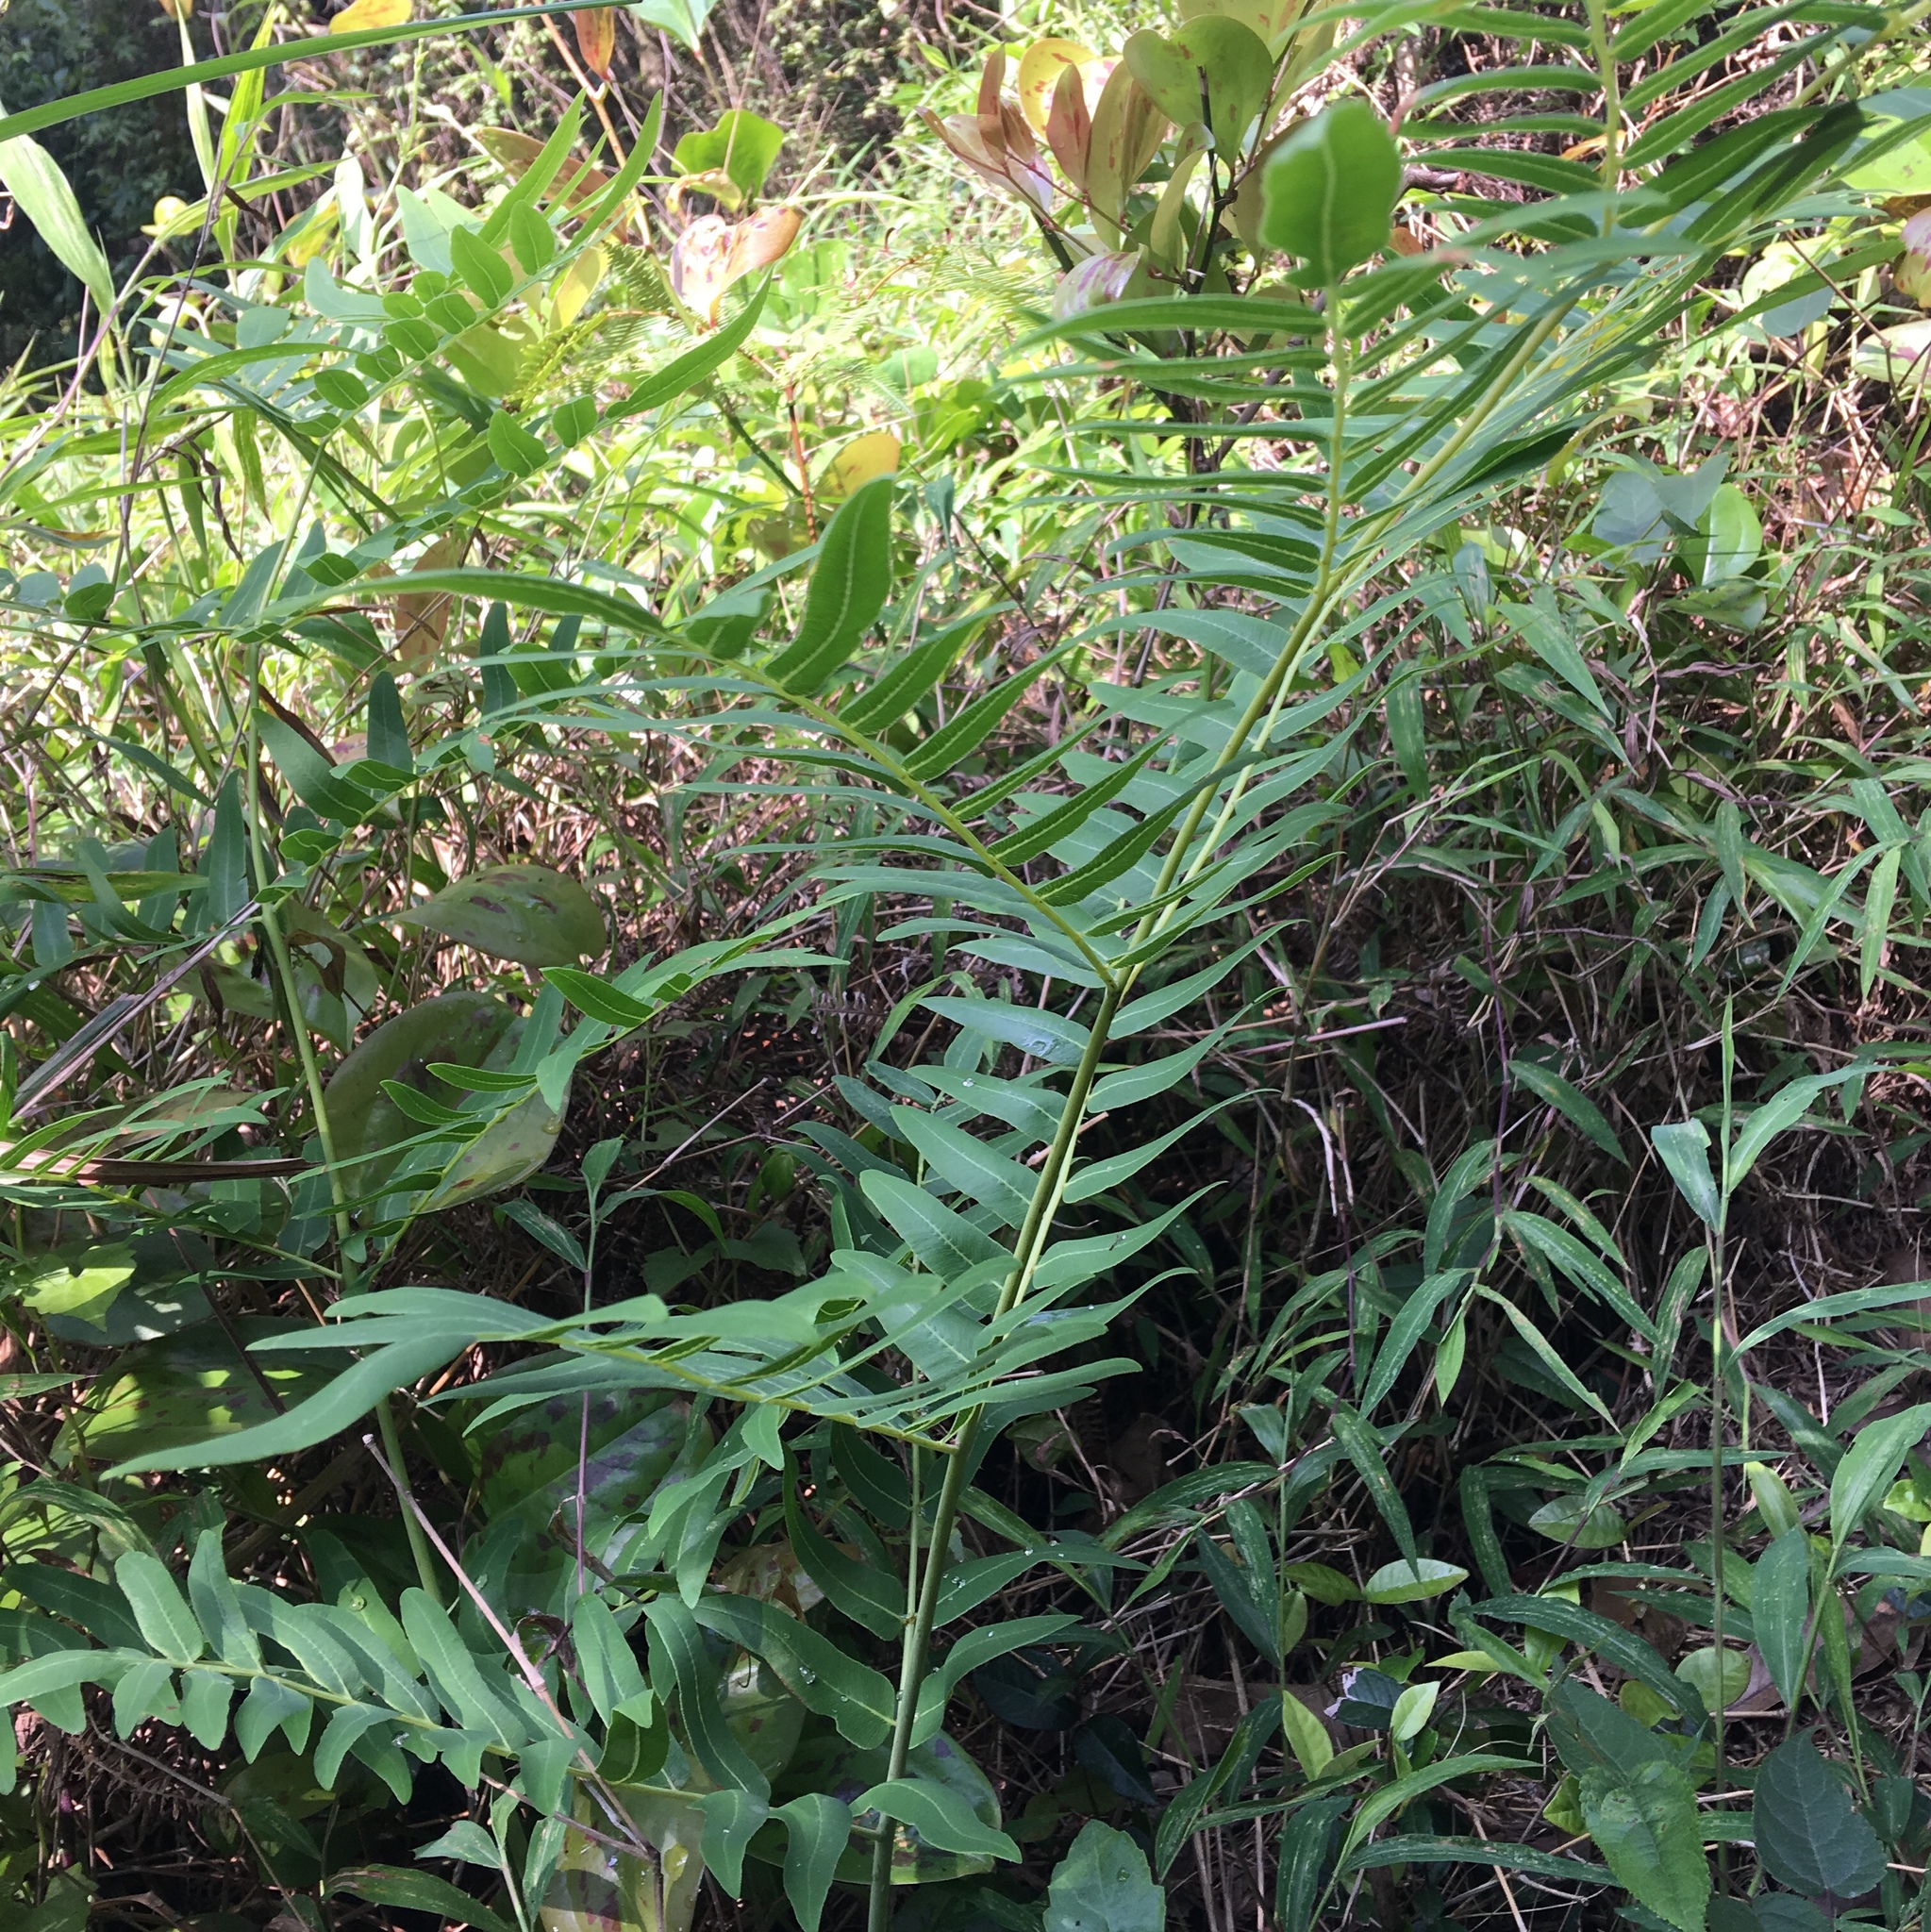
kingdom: Plantae
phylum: Tracheophyta
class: Polypodiopsida
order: Osmundales
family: Osmundaceae
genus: Osmunda
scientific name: Osmunda japonica
